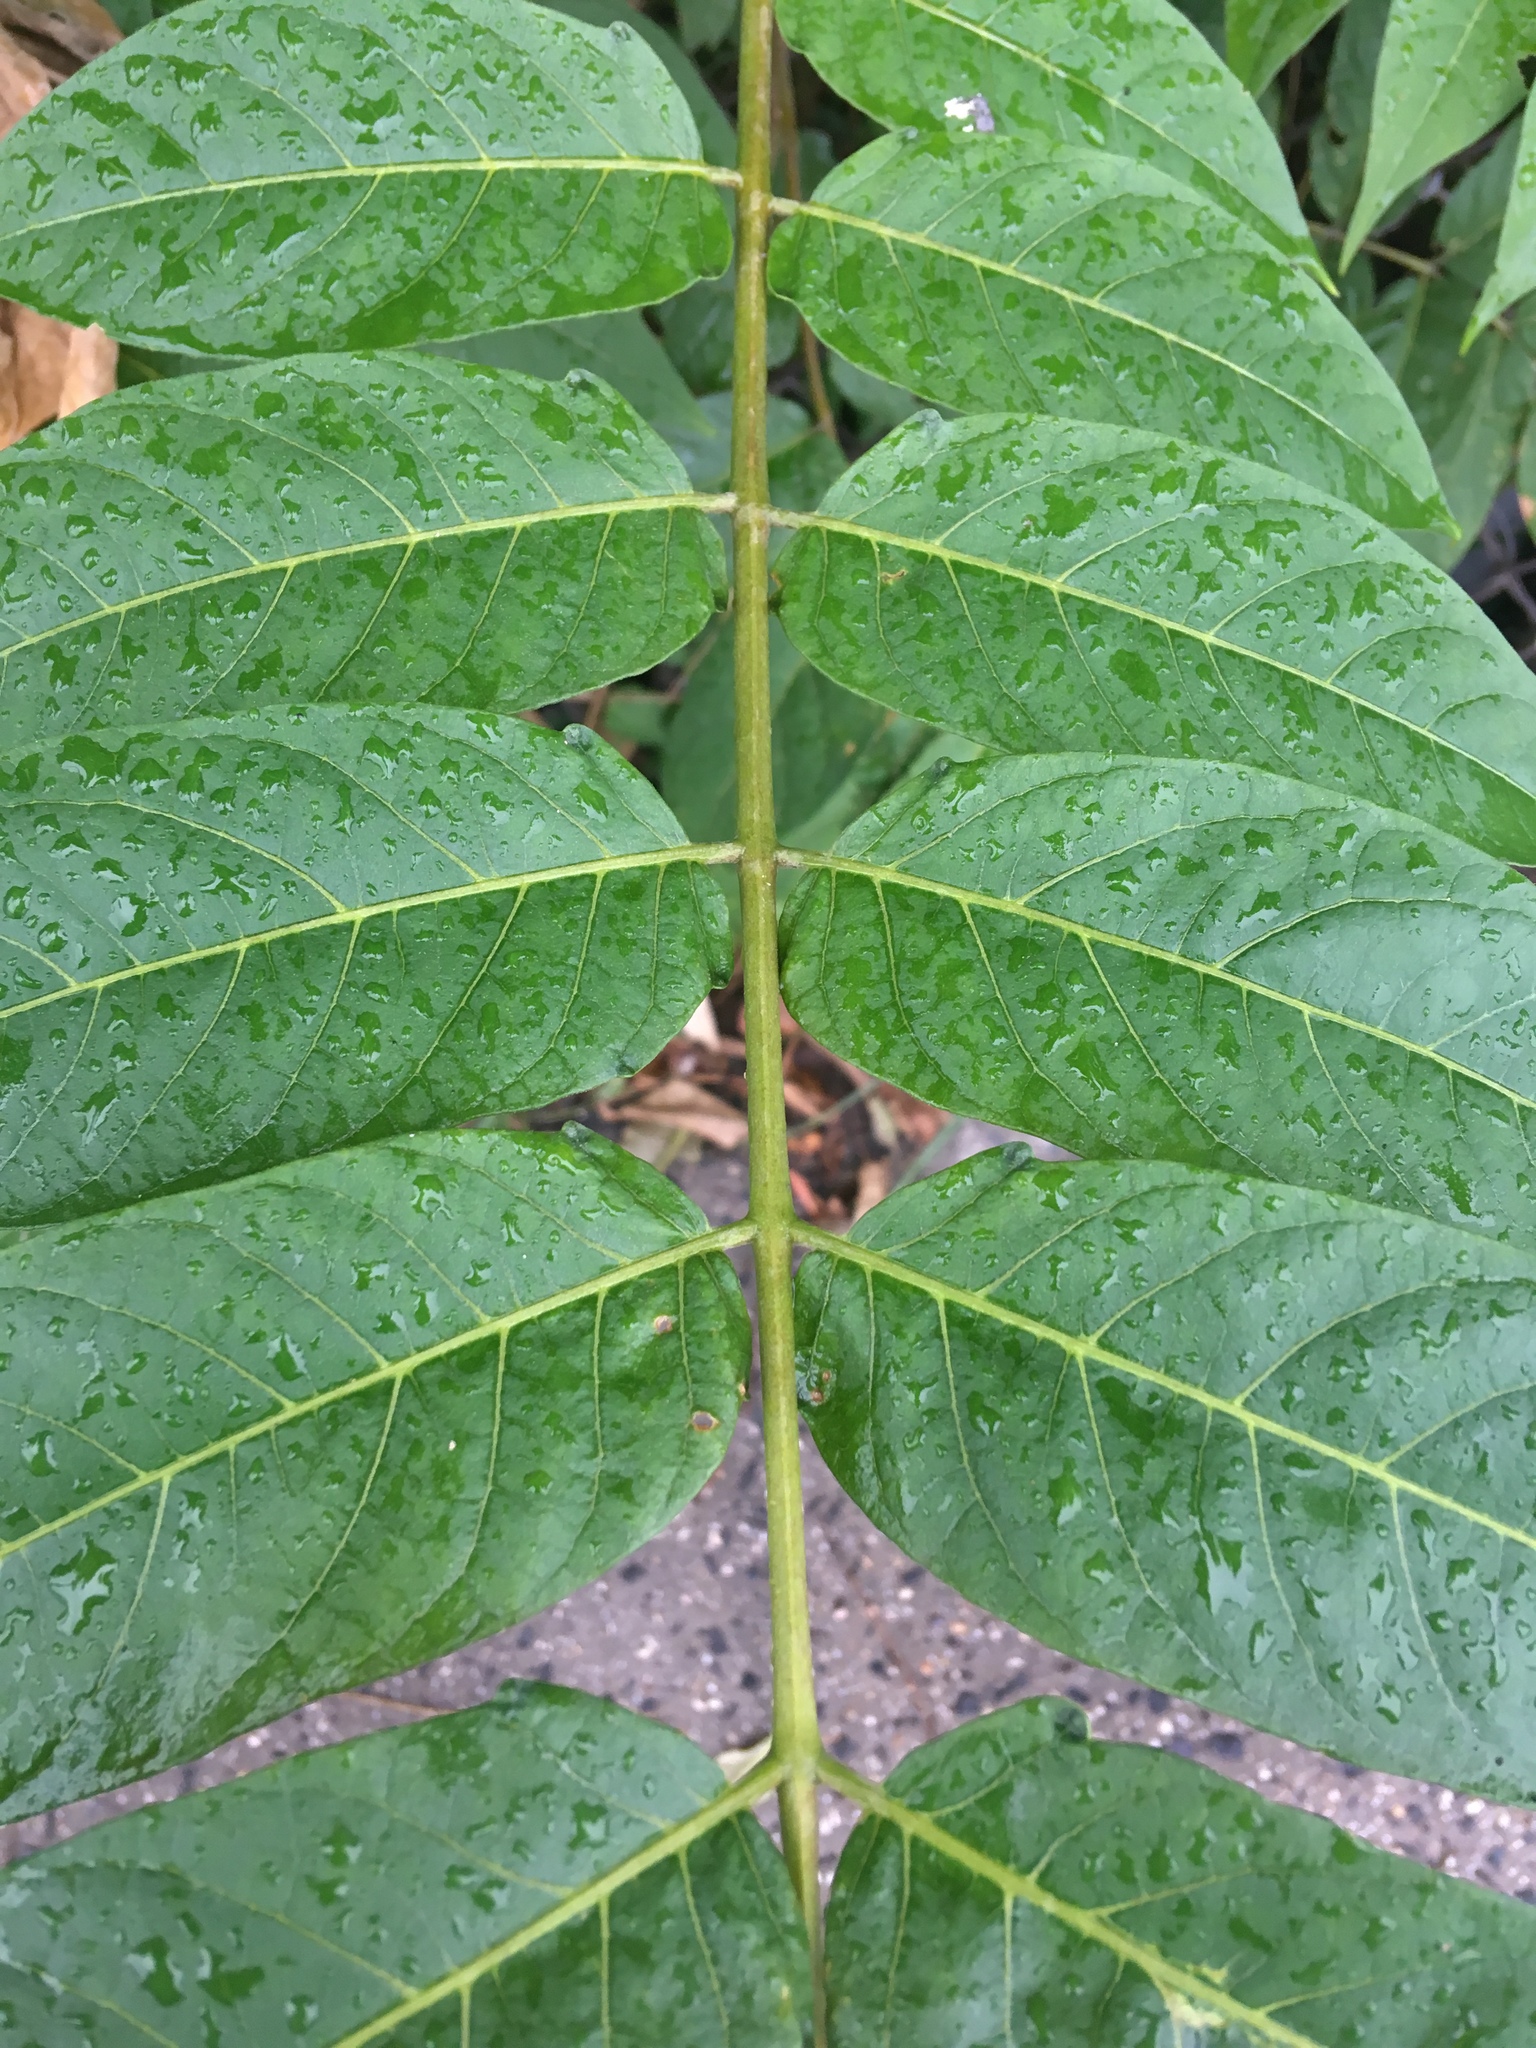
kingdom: Plantae
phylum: Tracheophyta
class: Magnoliopsida
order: Sapindales
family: Simaroubaceae
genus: Ailanthus
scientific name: Ailanthus altissima
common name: Tree-of-heaven
